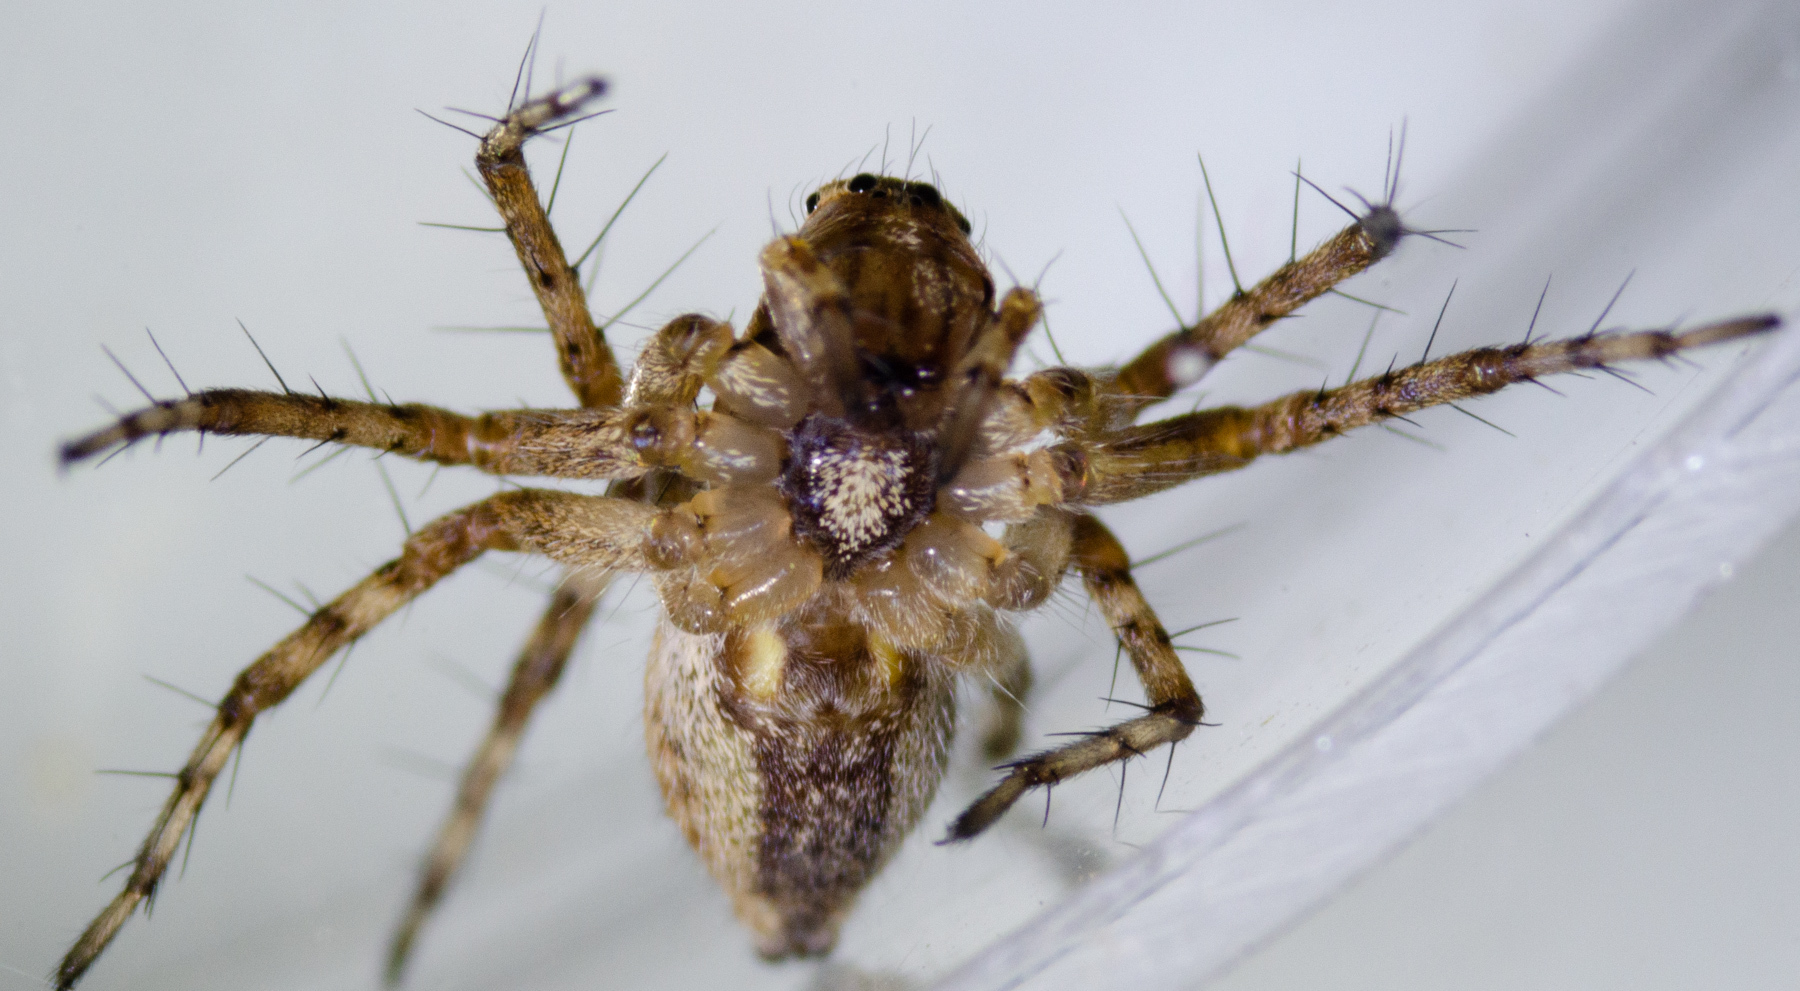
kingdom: Animalia
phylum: Arthropoda
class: Arachnida
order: Araneae
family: Oxyopidae
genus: Oxyopes
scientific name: Oxyopes scalaris
